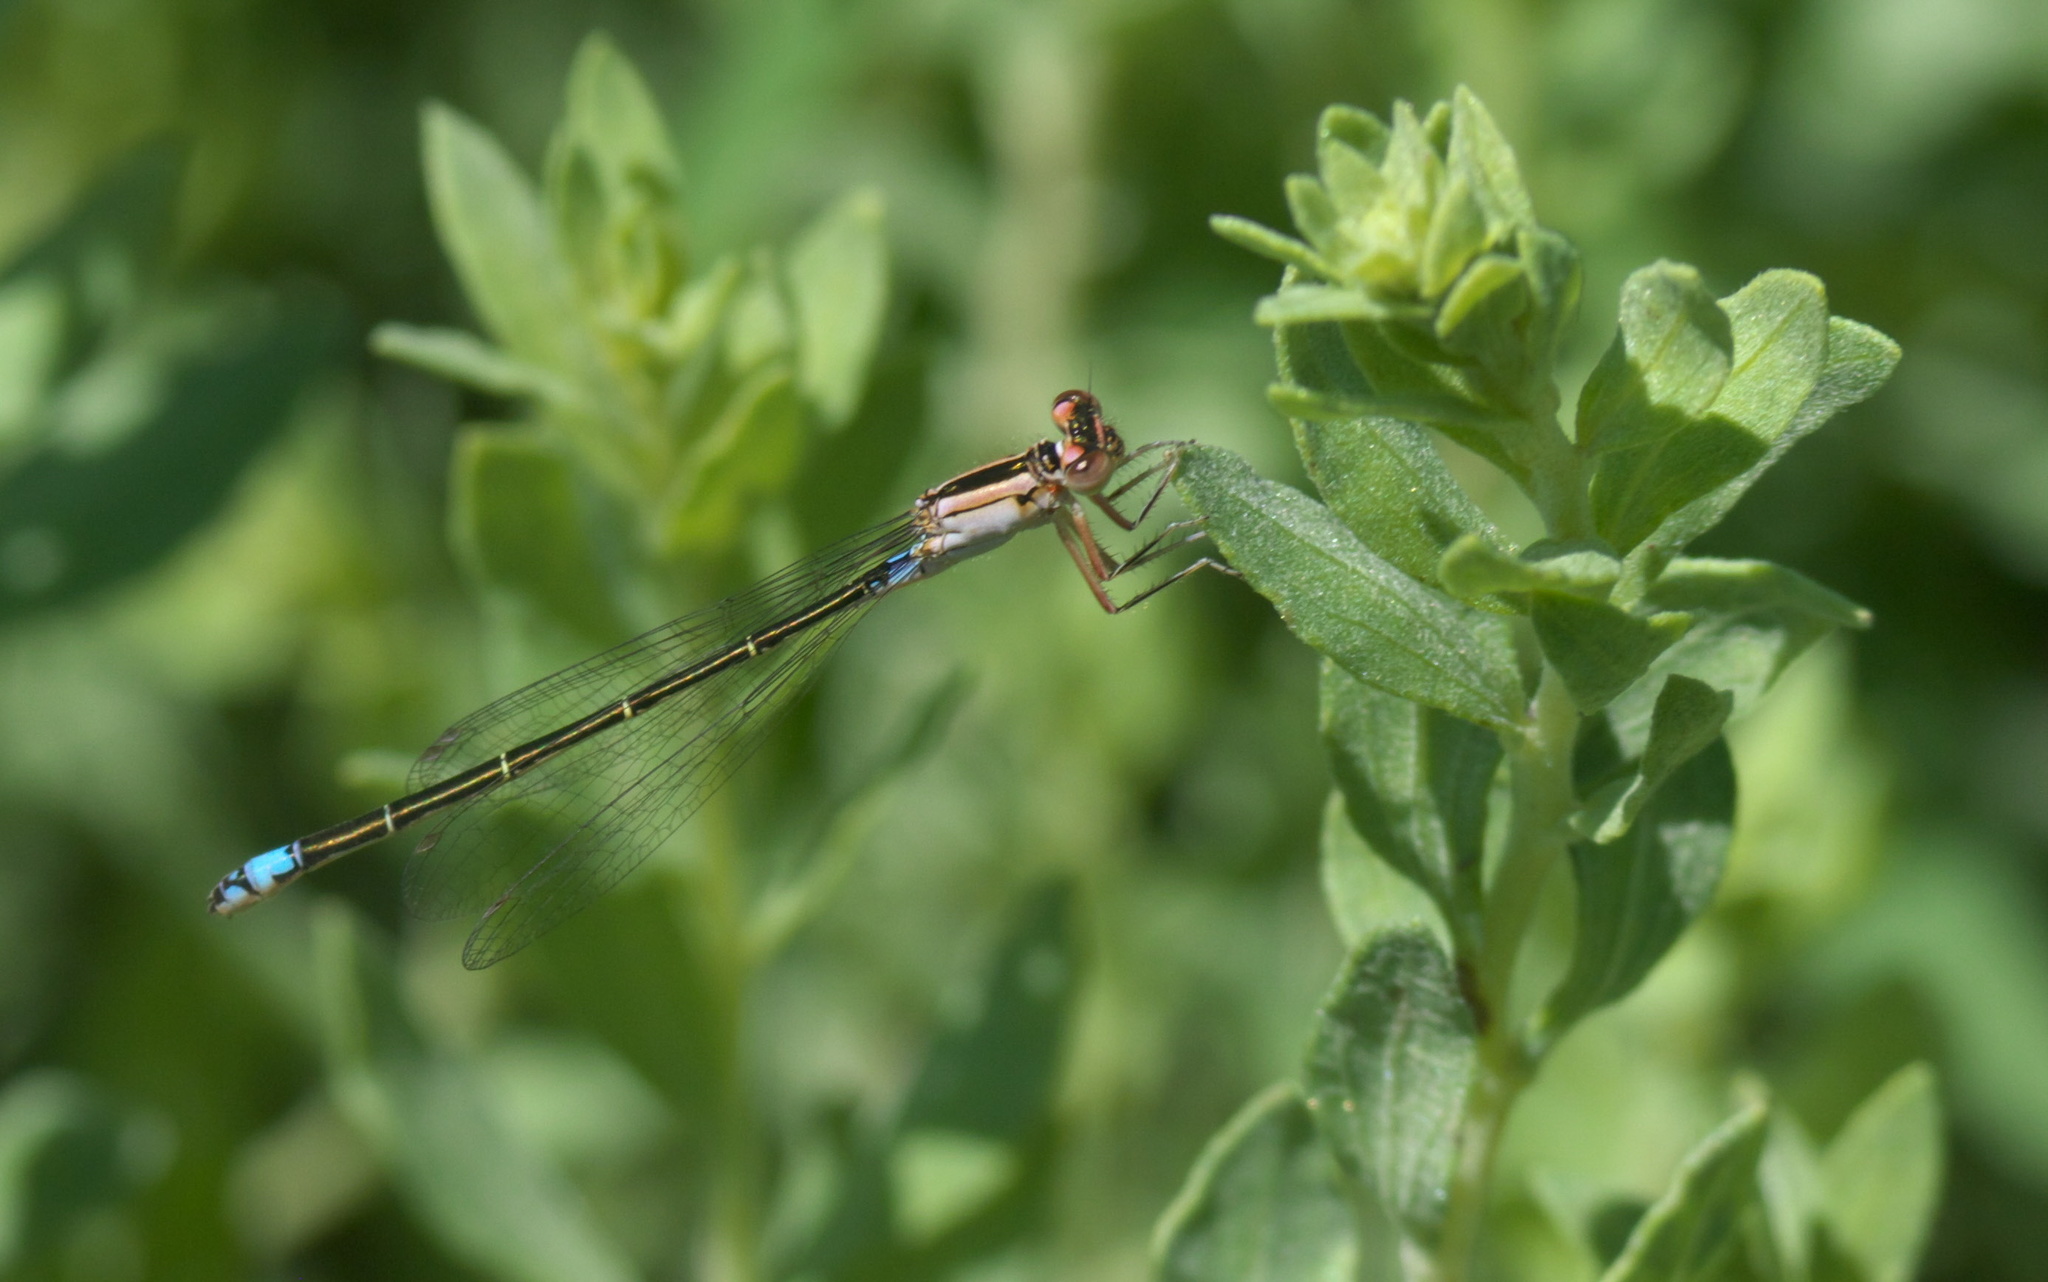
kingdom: Animalia
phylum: Arthropoda
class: Insecta
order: Odonata
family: Coenagrionidae
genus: Ischnura
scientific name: Ischnura damula
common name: Plains forktail
